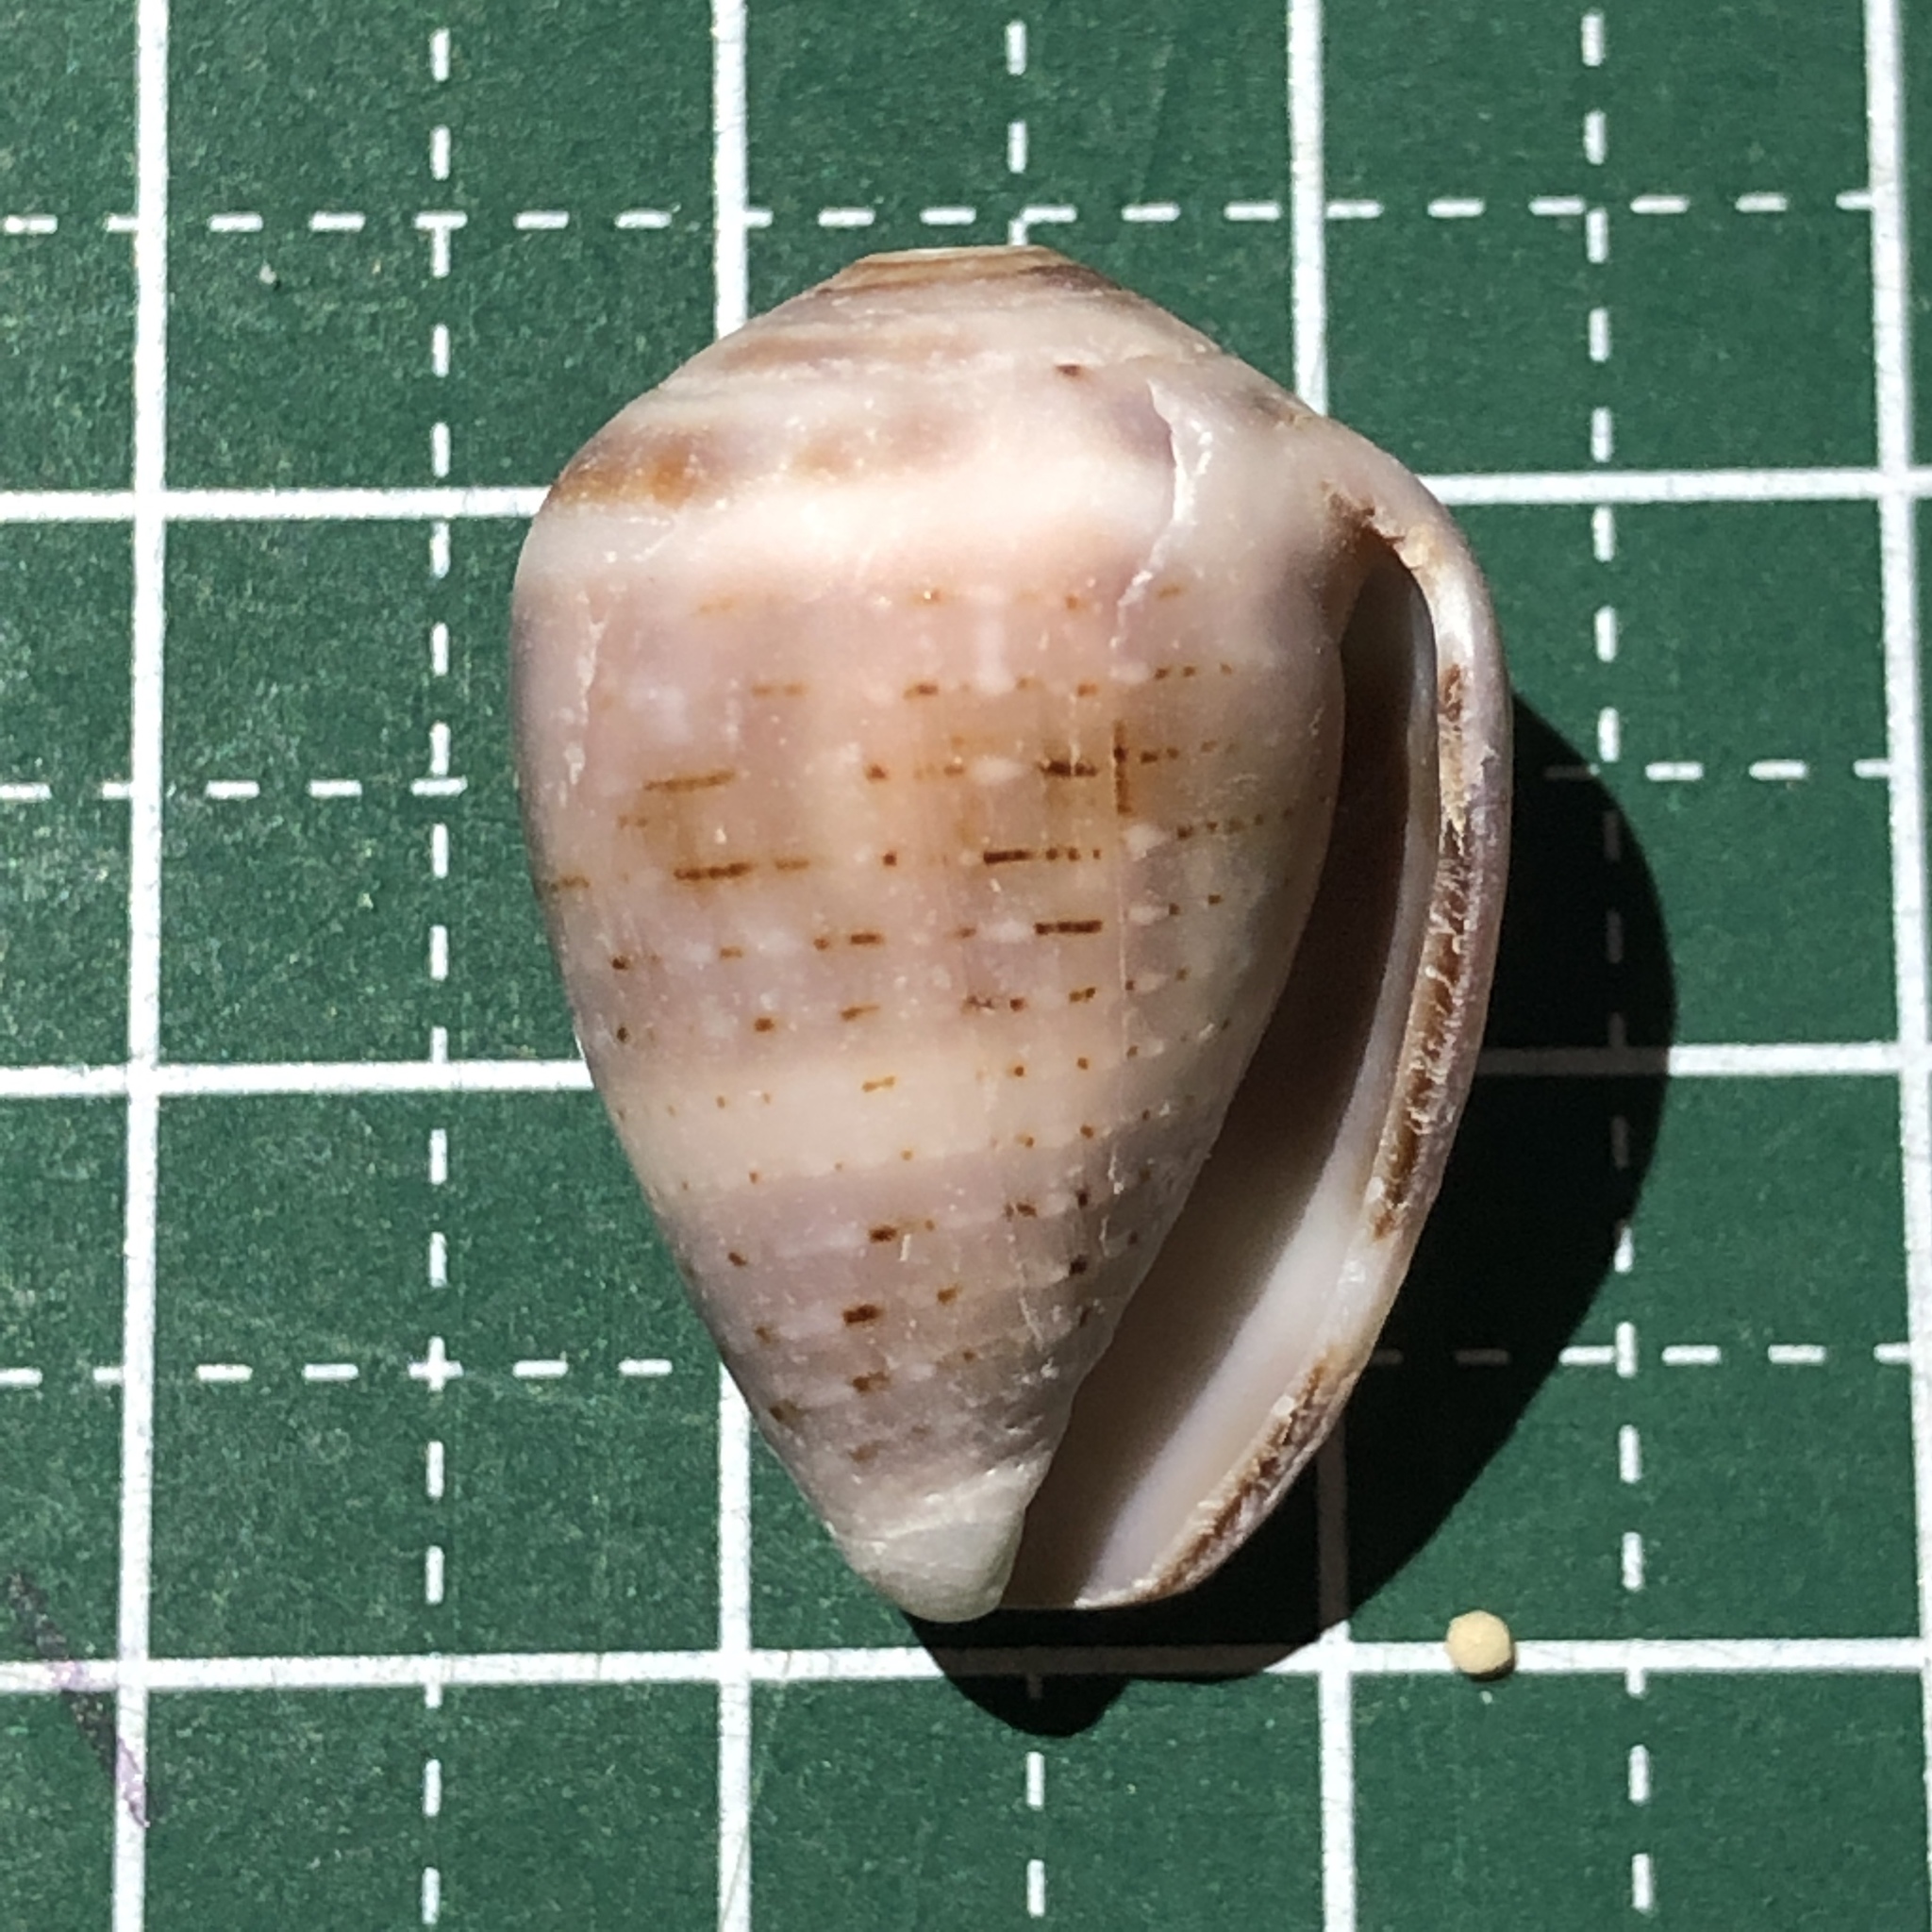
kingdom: Animalia
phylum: Mollusca
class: Gastropoda
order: Neogastropoda
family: Conidae
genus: Conus
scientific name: Conus coronatus
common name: Coronated cone
